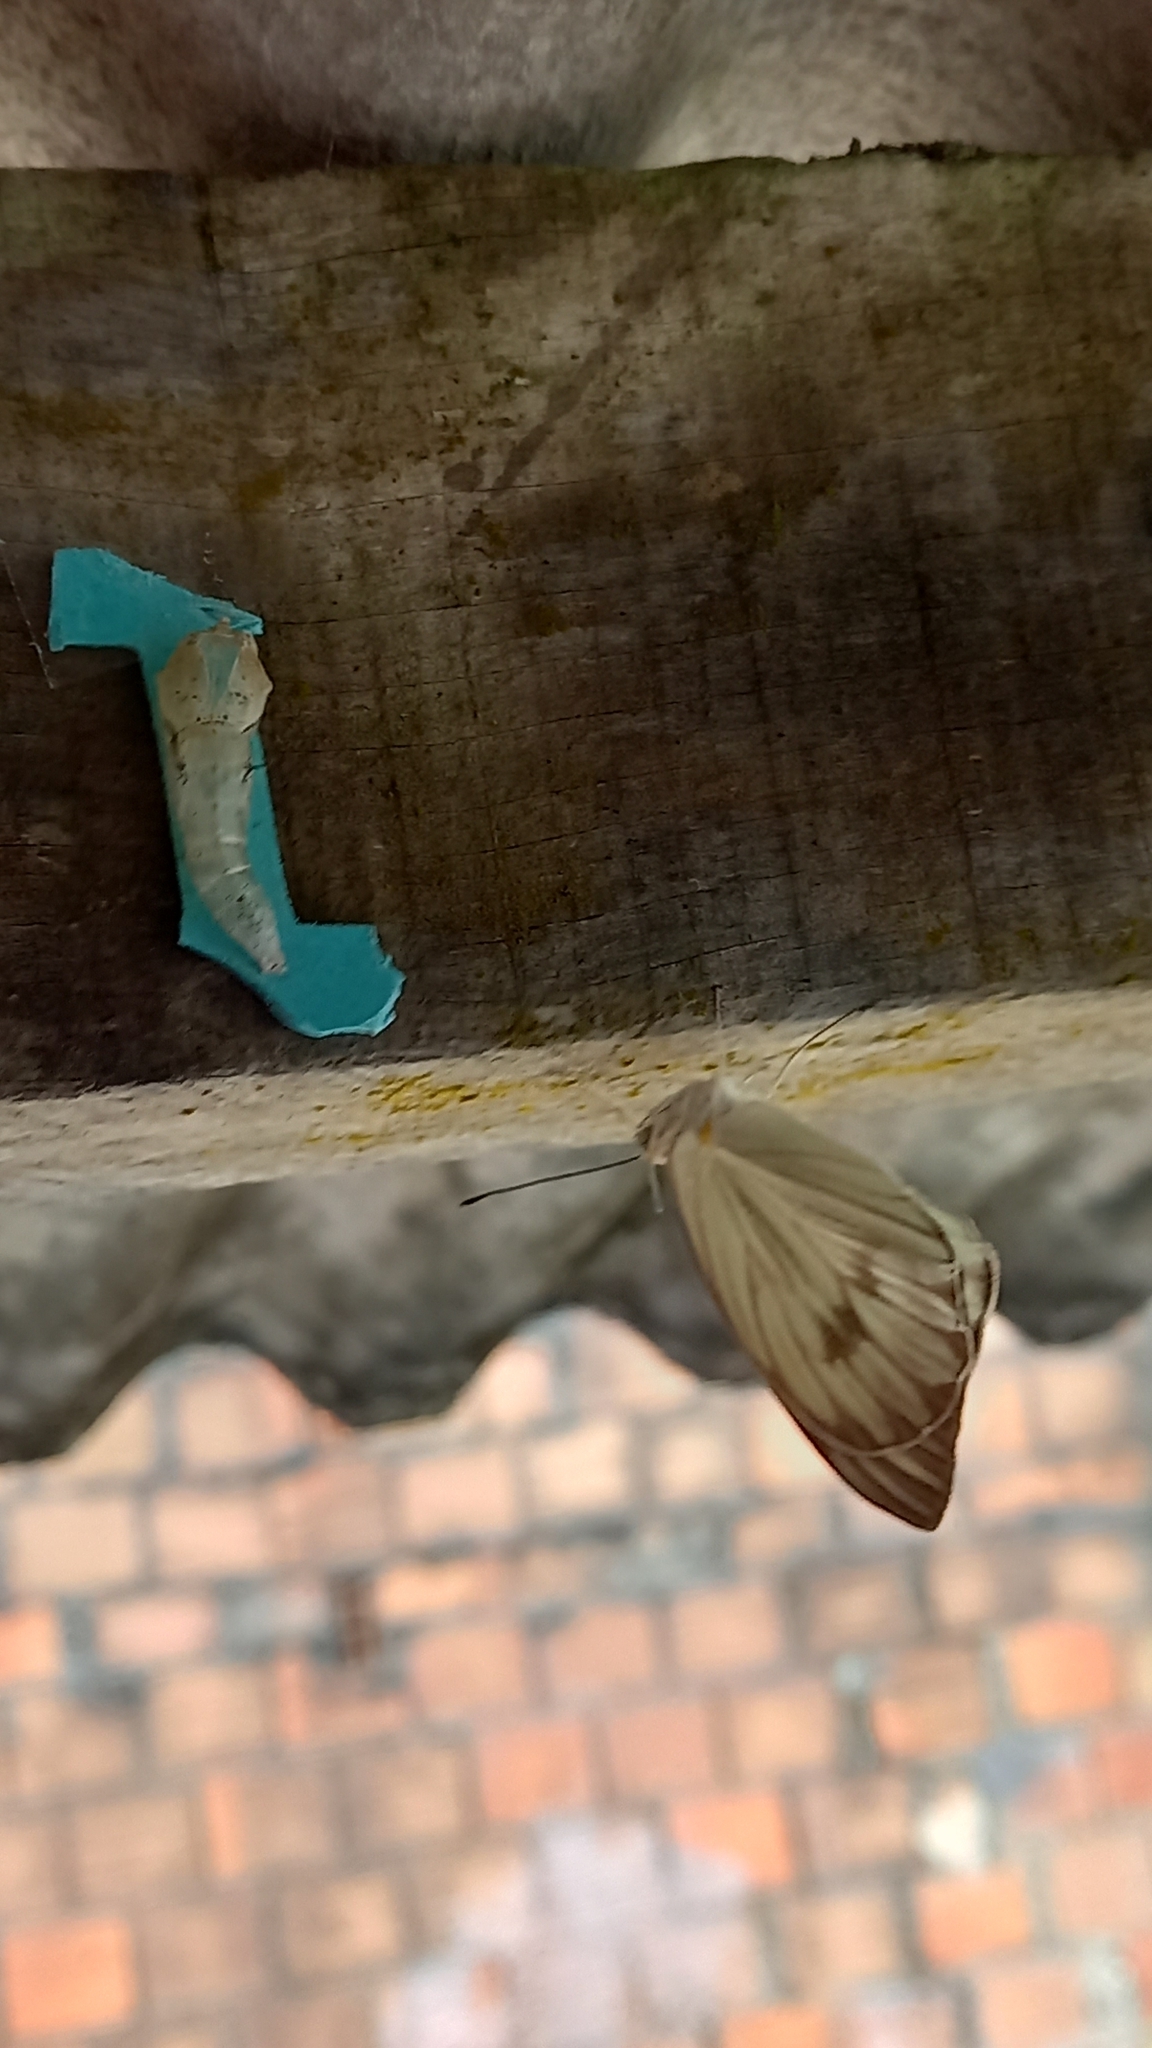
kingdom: Animalia
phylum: Arthropoda
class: Insecta
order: Lepidoptera
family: Pieridae
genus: Ascia
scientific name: Ascia monuste
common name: Great southern white
